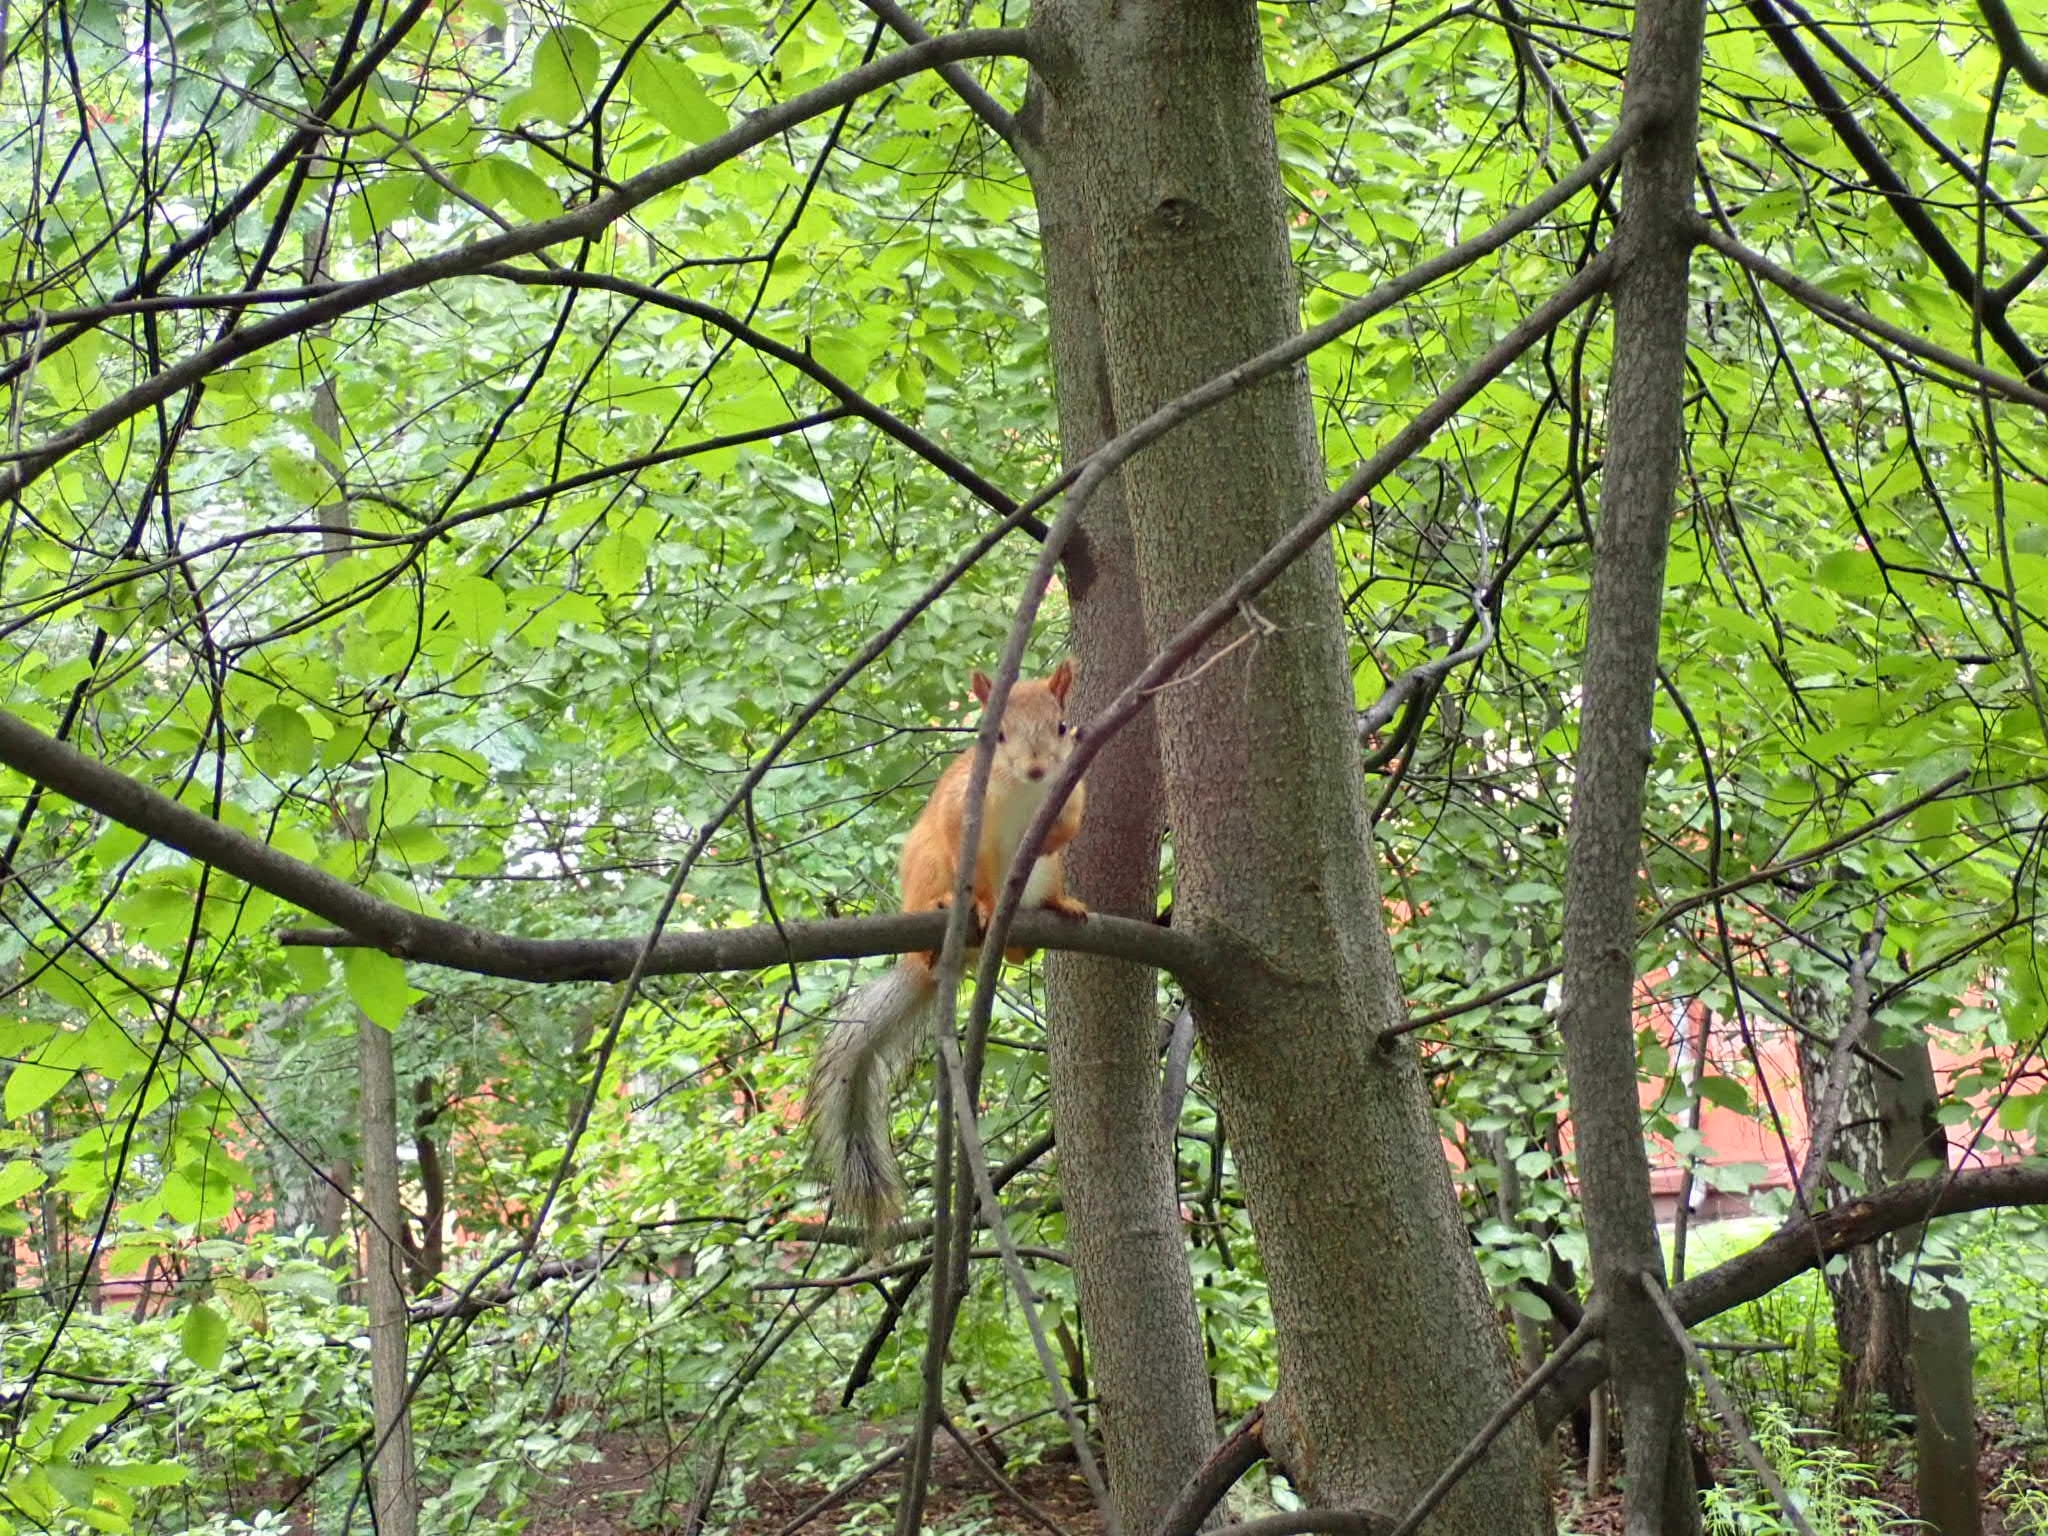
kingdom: Animalia
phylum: Chordata
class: Mammalia
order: Rodentia
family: Sciuridae
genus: Sciurus
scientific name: Sciurus vulgaris
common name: Eurasian red squirrel
